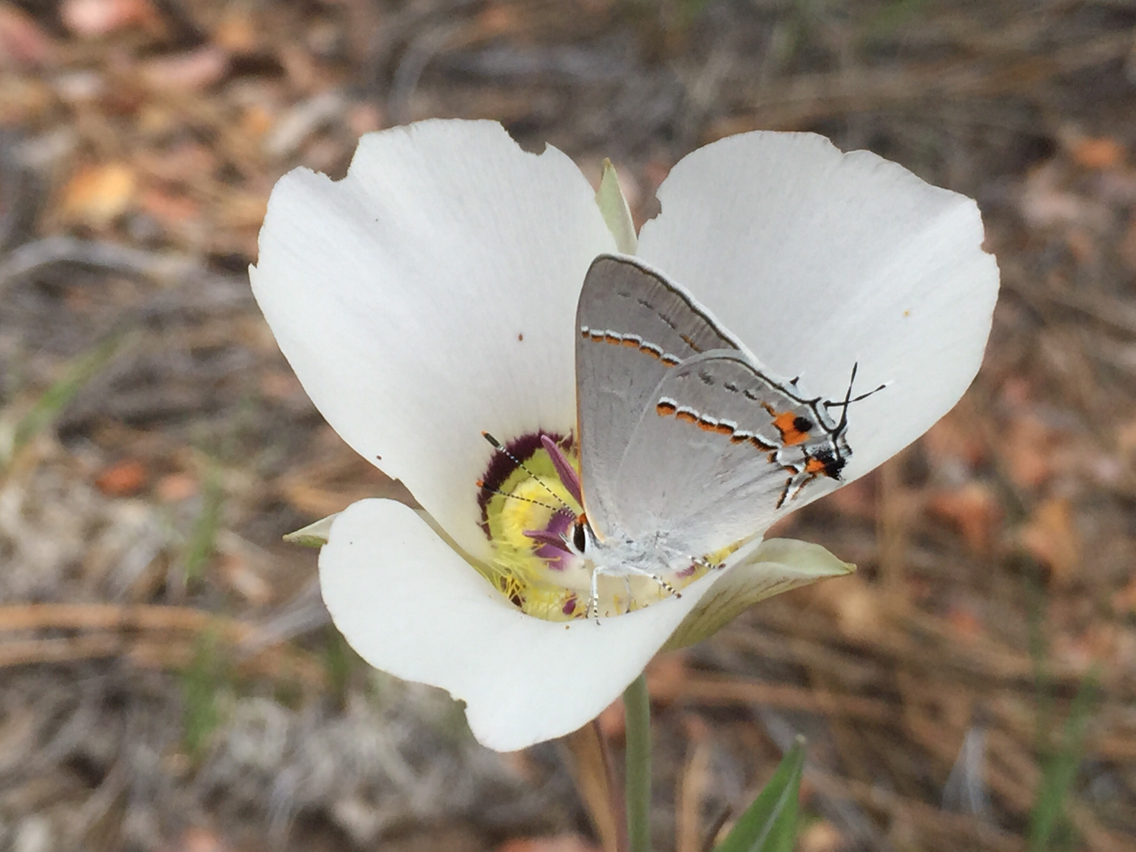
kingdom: Animalia
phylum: Arthropoda
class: Insecta
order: Lepidoptera
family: Lycaenidae
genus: Strymon
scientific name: Strymon melinus
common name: Gray hairstreak
